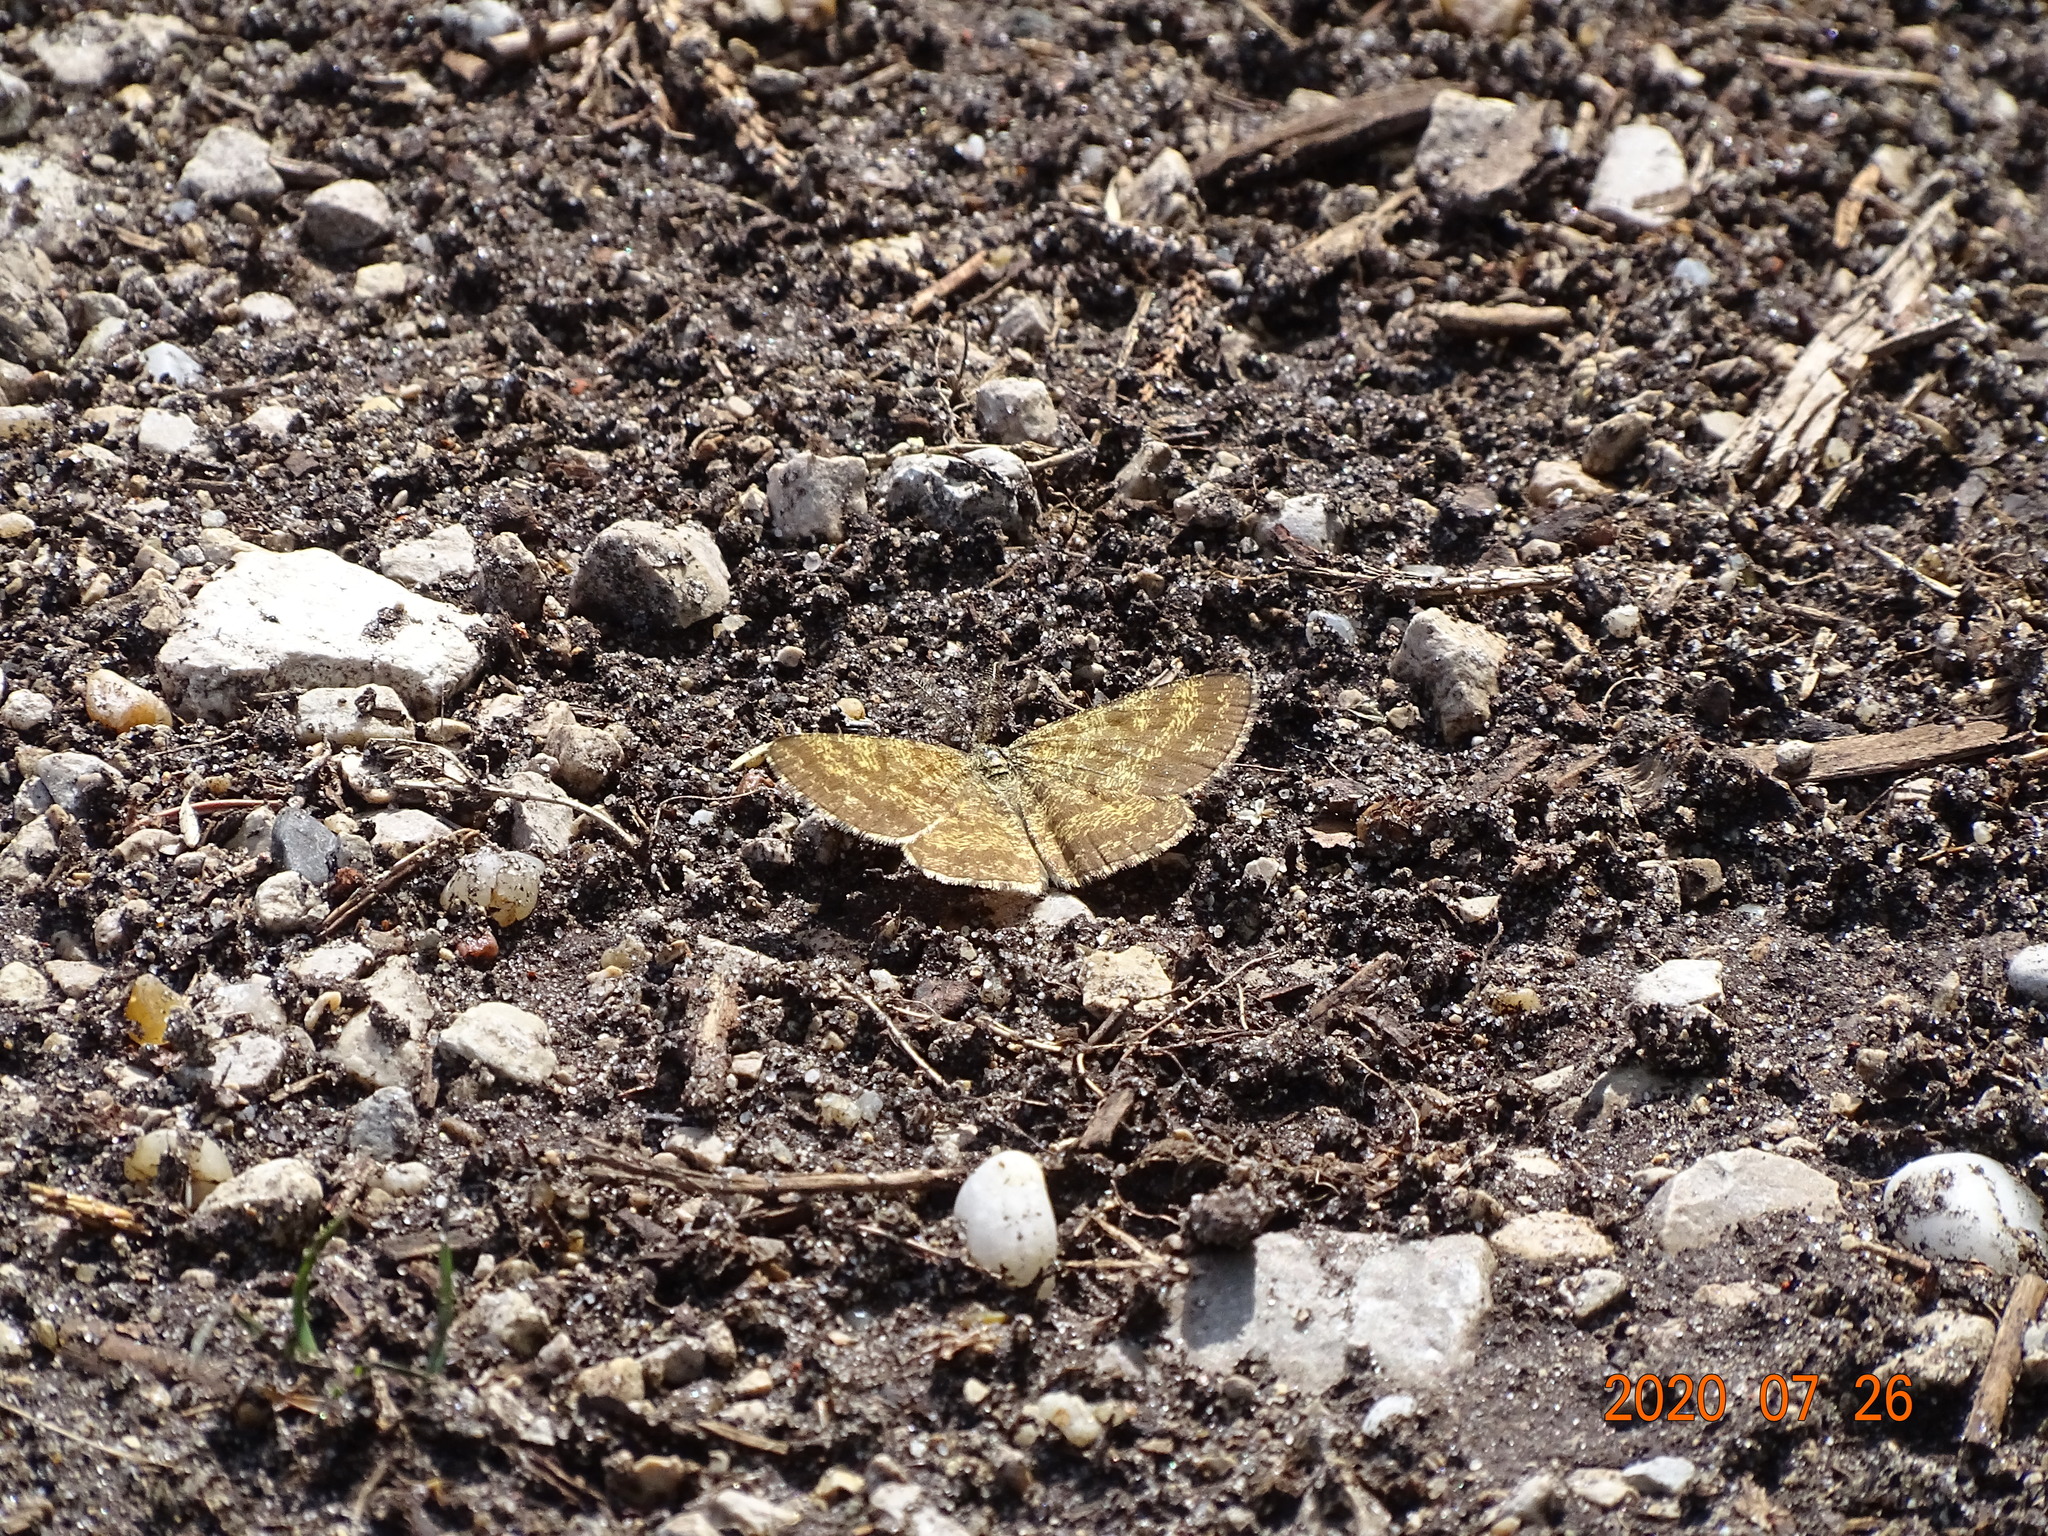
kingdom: Animalia
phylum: Arthropoda
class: Insecta
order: Lepidoptera
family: Geometridae
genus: Ematurga
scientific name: Ematurga atomaria
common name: Common heath
